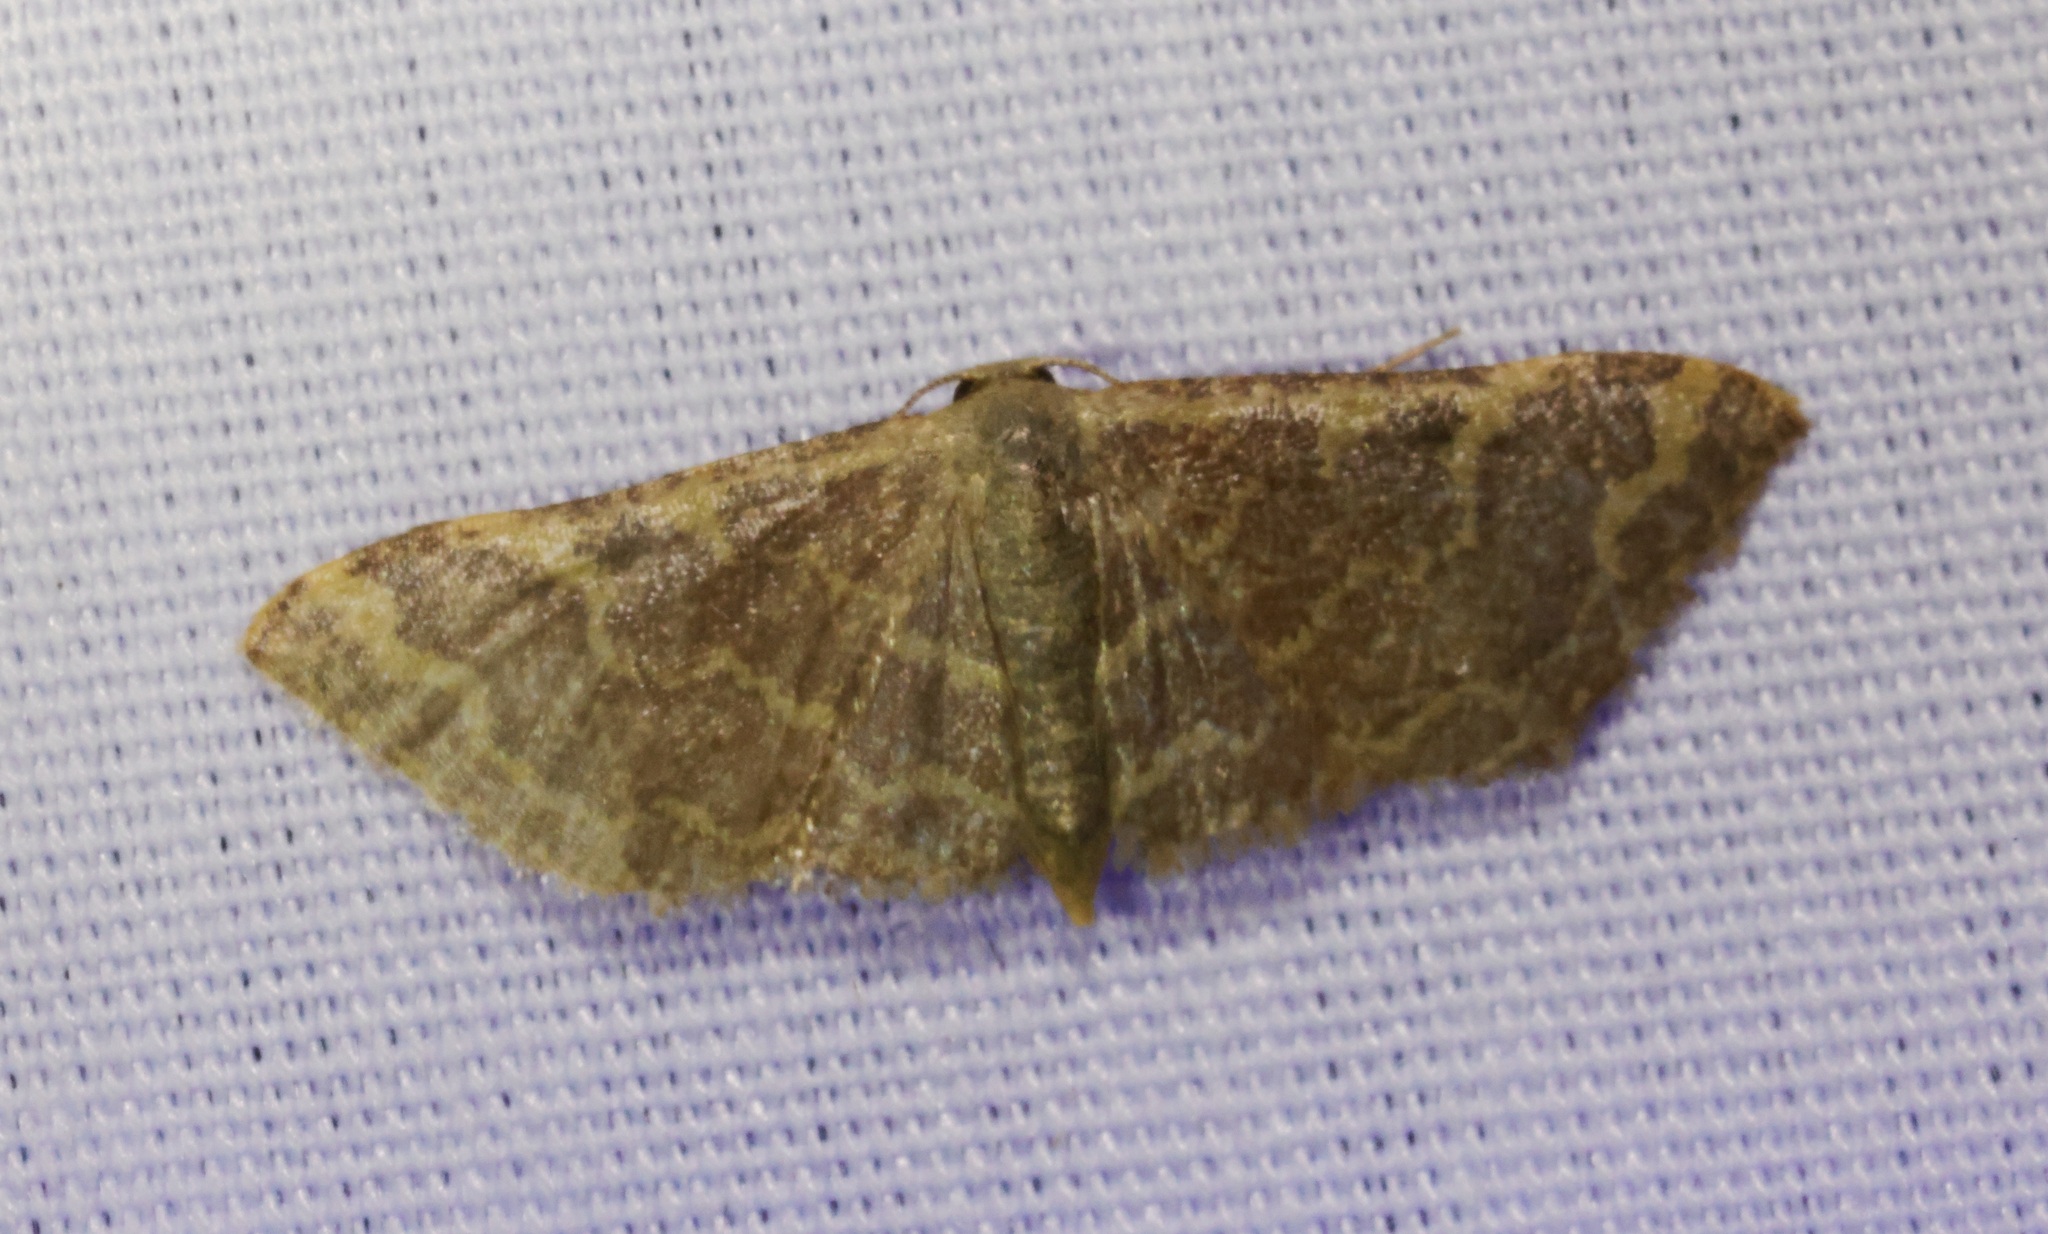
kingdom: Animalia
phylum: Arthropoda
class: Insecta
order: Lepidoptera
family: Geometridae
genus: Lophophleps
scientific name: Lophophleps purpurea
